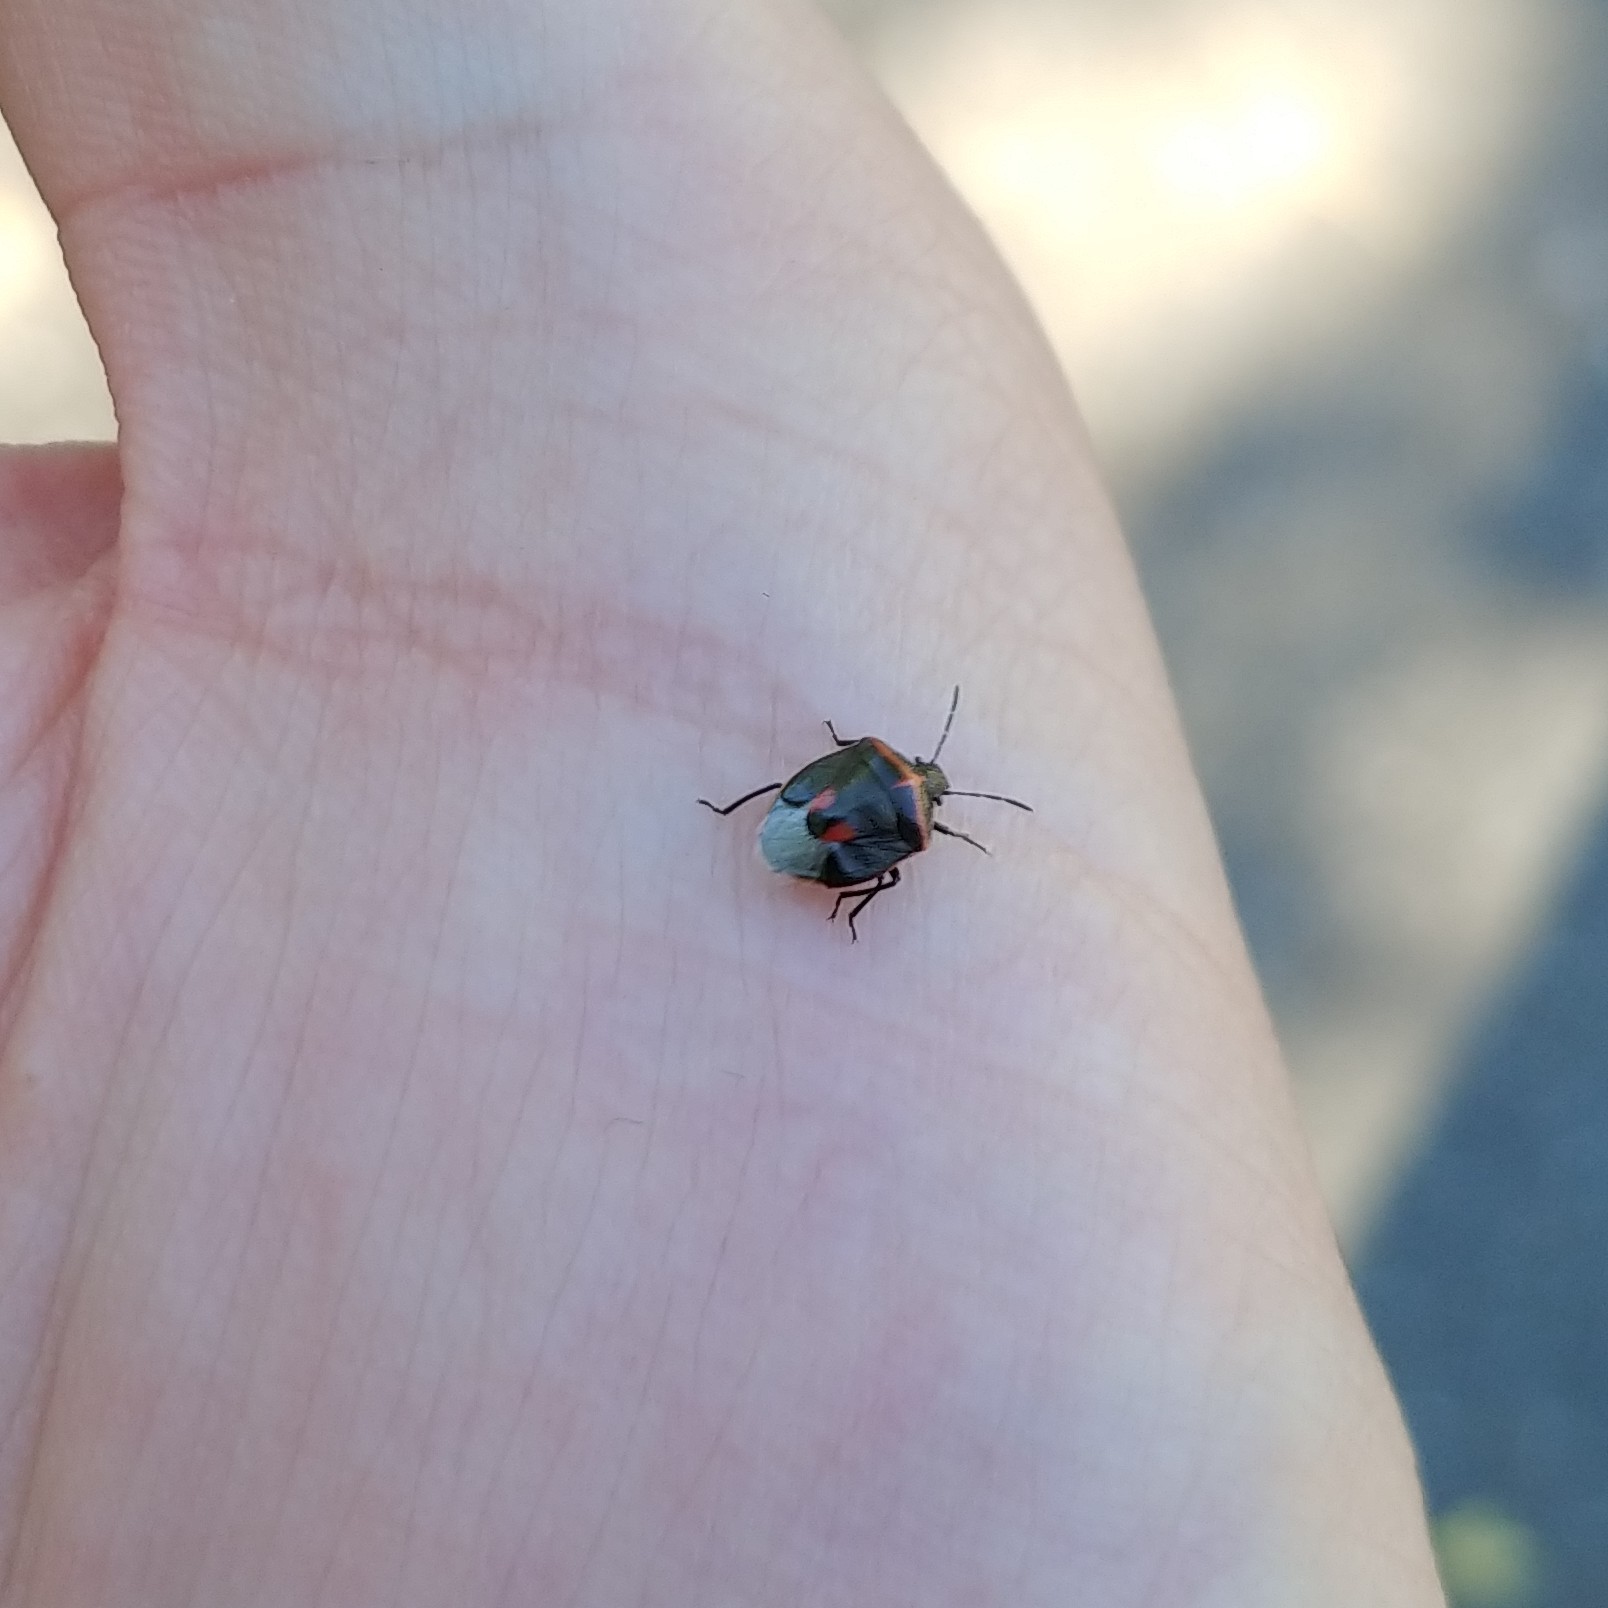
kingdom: Animalia
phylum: Arthropoda
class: Insecta
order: Hemiptera
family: Pentatomidae
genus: Cosmopepla
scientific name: Cosmopepla lintneriana
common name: Twice-stabbed stink bug
